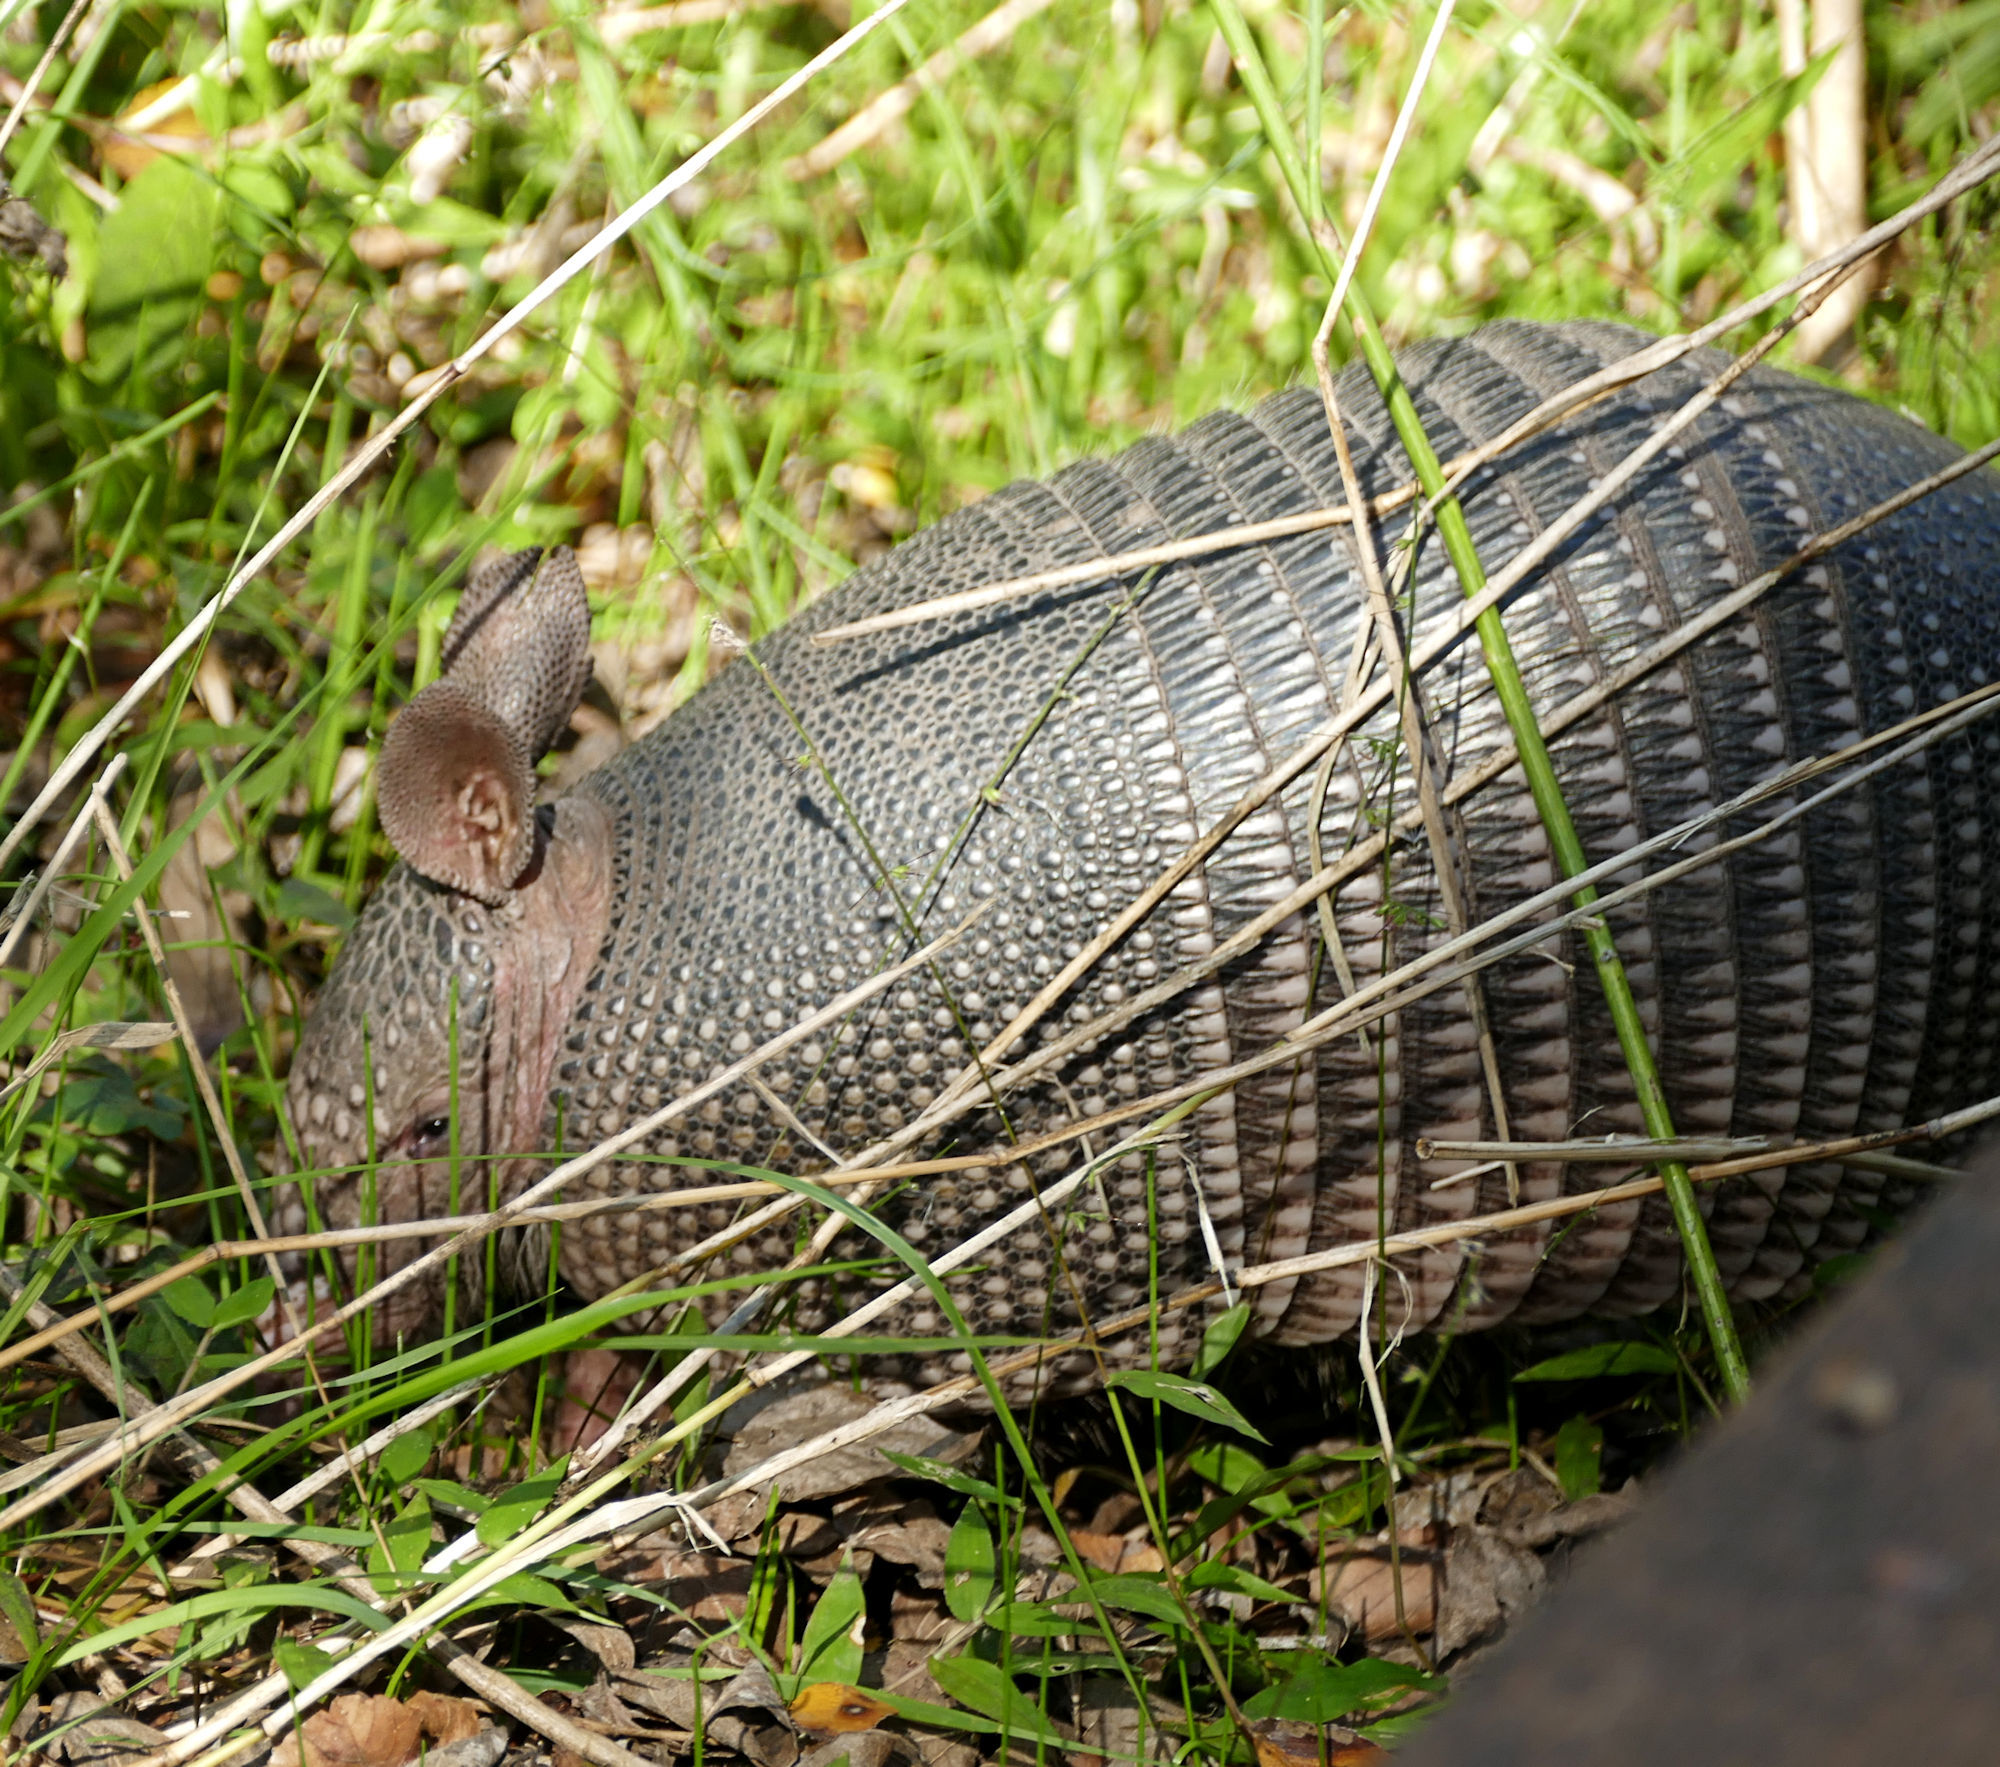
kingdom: Animalia
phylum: Chordata
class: Mammalia
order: Cingulata
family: Dasypodidae
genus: Dasypus
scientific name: Dasypus novemcinctus
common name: Nine-banded armadillo
